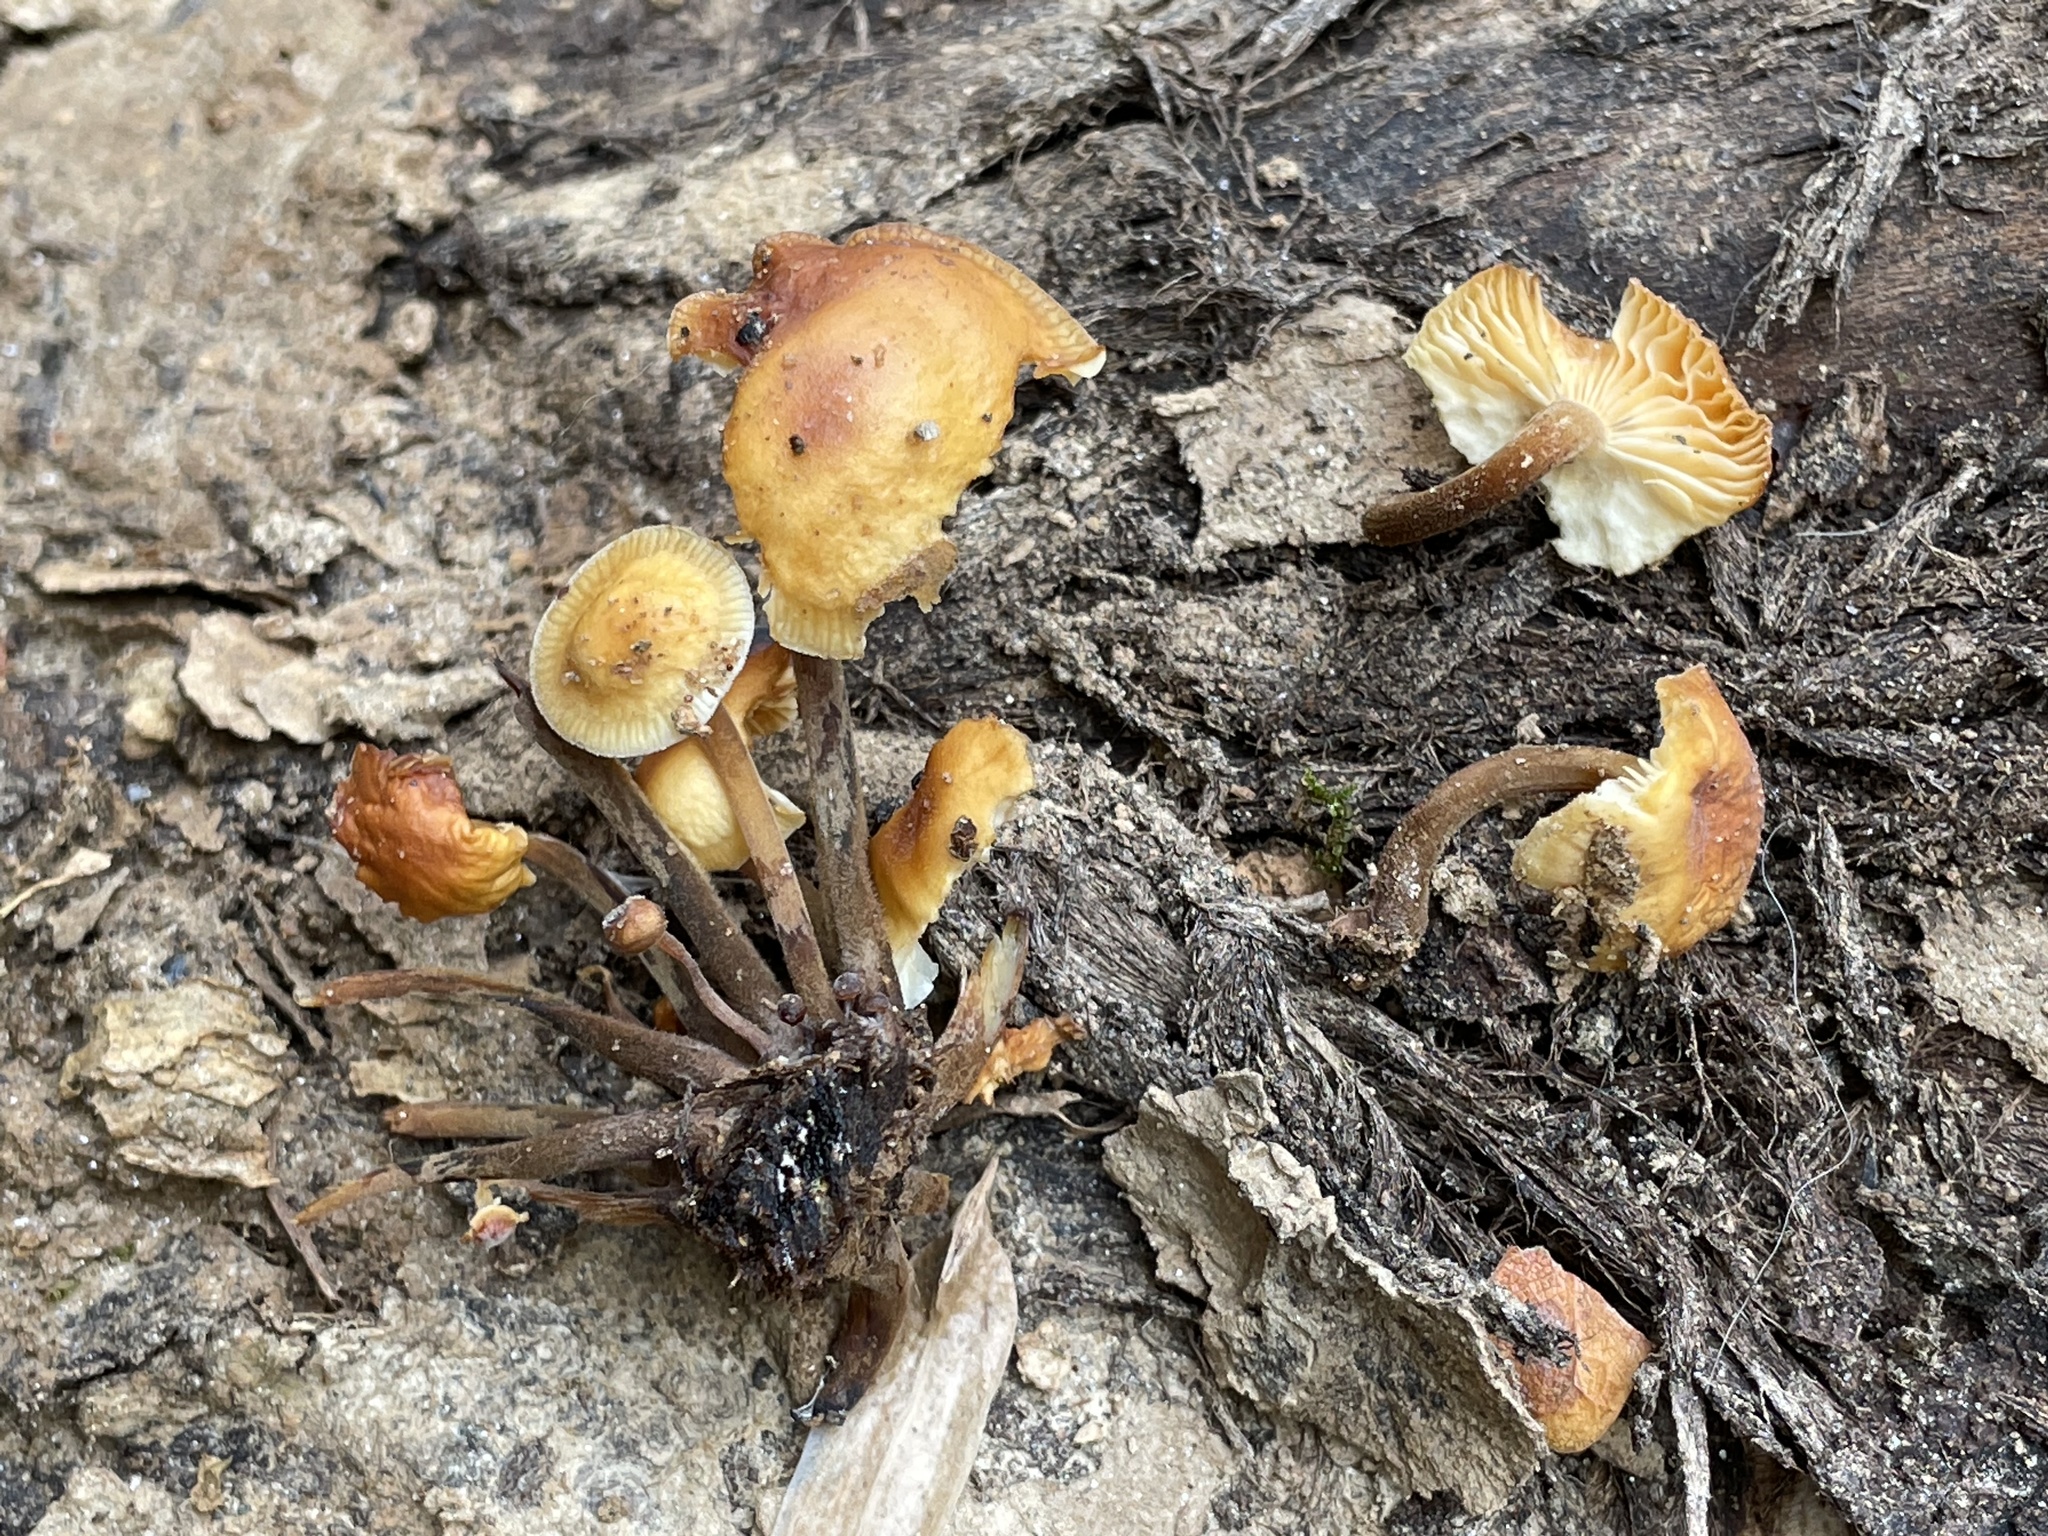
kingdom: Fungi
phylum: Basidiomycota
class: Agaricomycetes
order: Agaricales
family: Physalacriaceae
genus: Flammulina
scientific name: Flammulina velutipes
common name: Velvet shank
